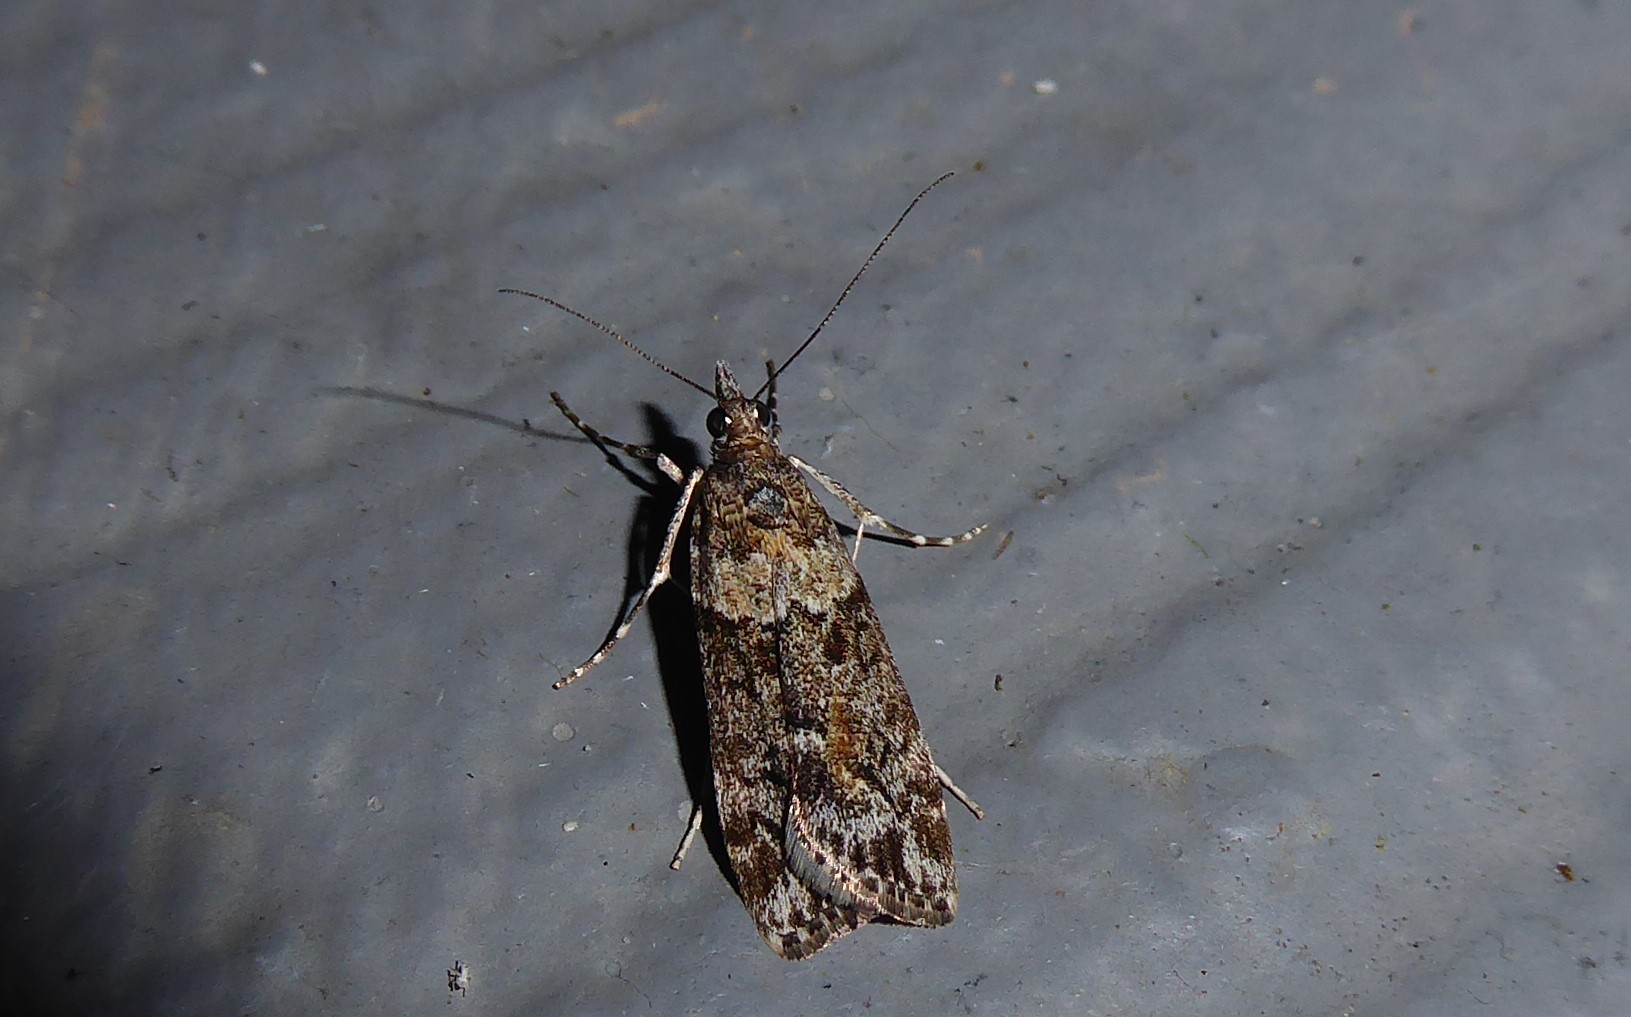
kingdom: Animalia
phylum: Arthropoda
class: Insecta
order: Lepidoptera
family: Crambidae
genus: Eudonia
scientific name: Eudonia submarginalis
